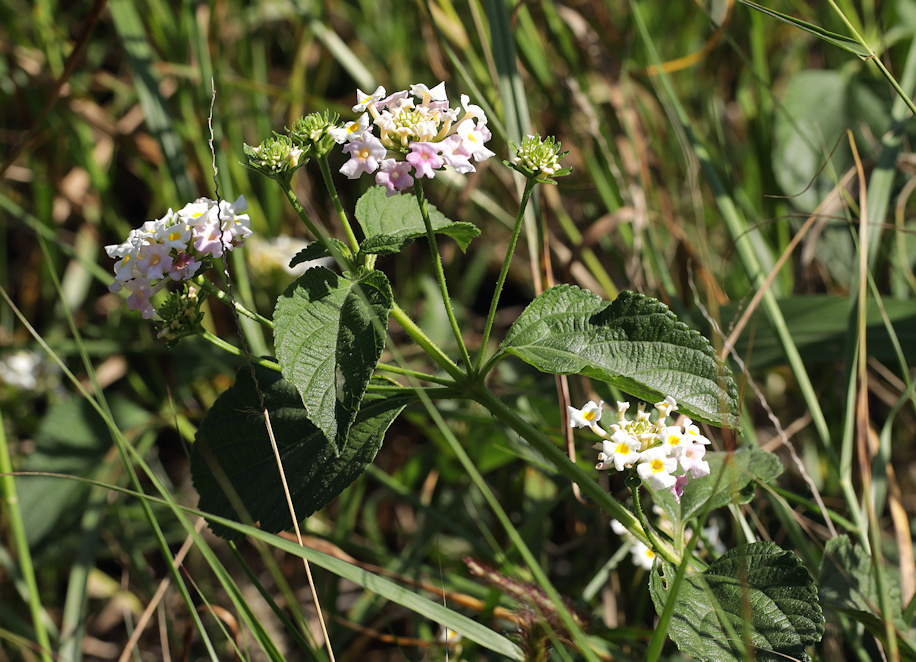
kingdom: Plantae
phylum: Tracheophyta
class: Magnoliopsida
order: Lamiales
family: Verbenaceae
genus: Lantana
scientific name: Lantana camara
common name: Lantana
